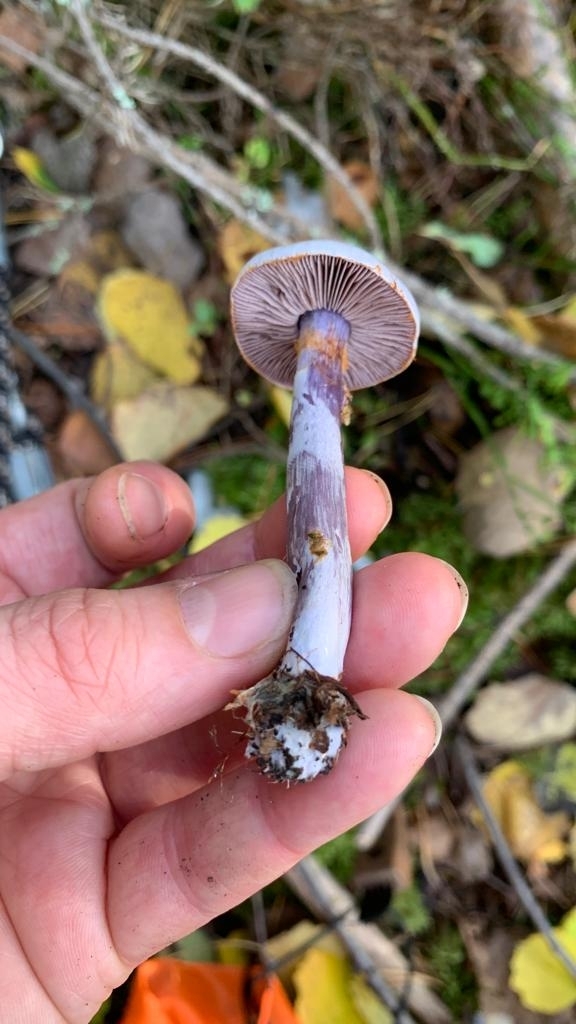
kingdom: Fungi
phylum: Basidiomycota
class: Agaricomycetes
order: Agaricales
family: Cortinariaceae
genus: Cortinarius
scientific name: Cortinarius camphoratus
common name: Goatcheese webcap
